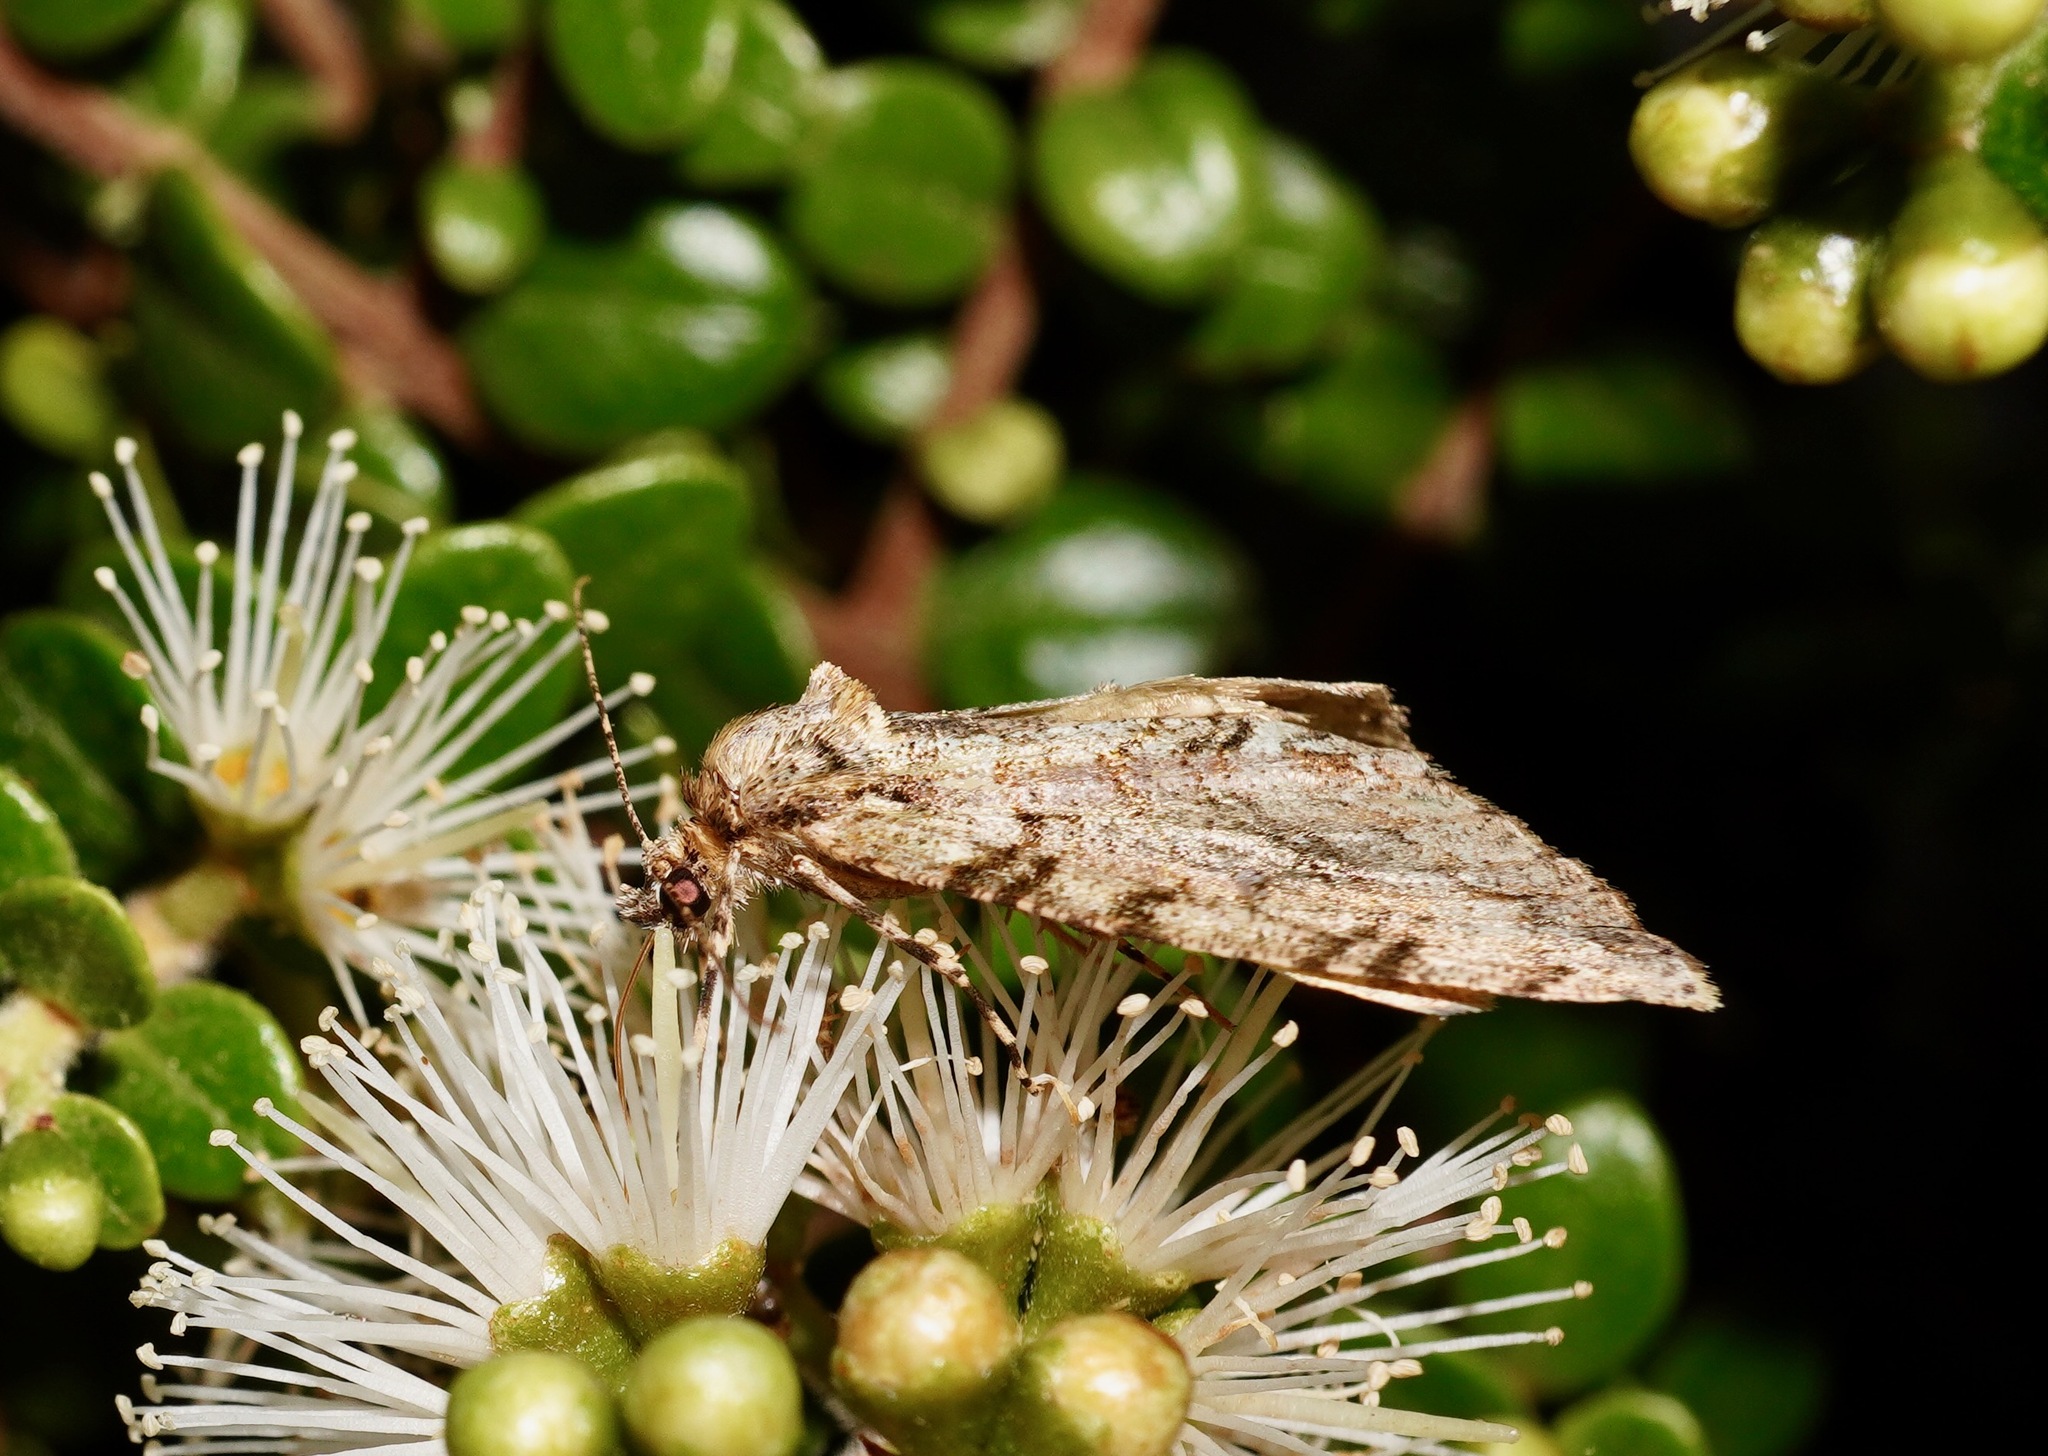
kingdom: Animalia
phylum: Arthropoda
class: Insecta
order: Lepidoptera
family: Geometridae
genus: Pseudocoremia
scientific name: Pseudocoremia suavis
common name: Common forest looper
